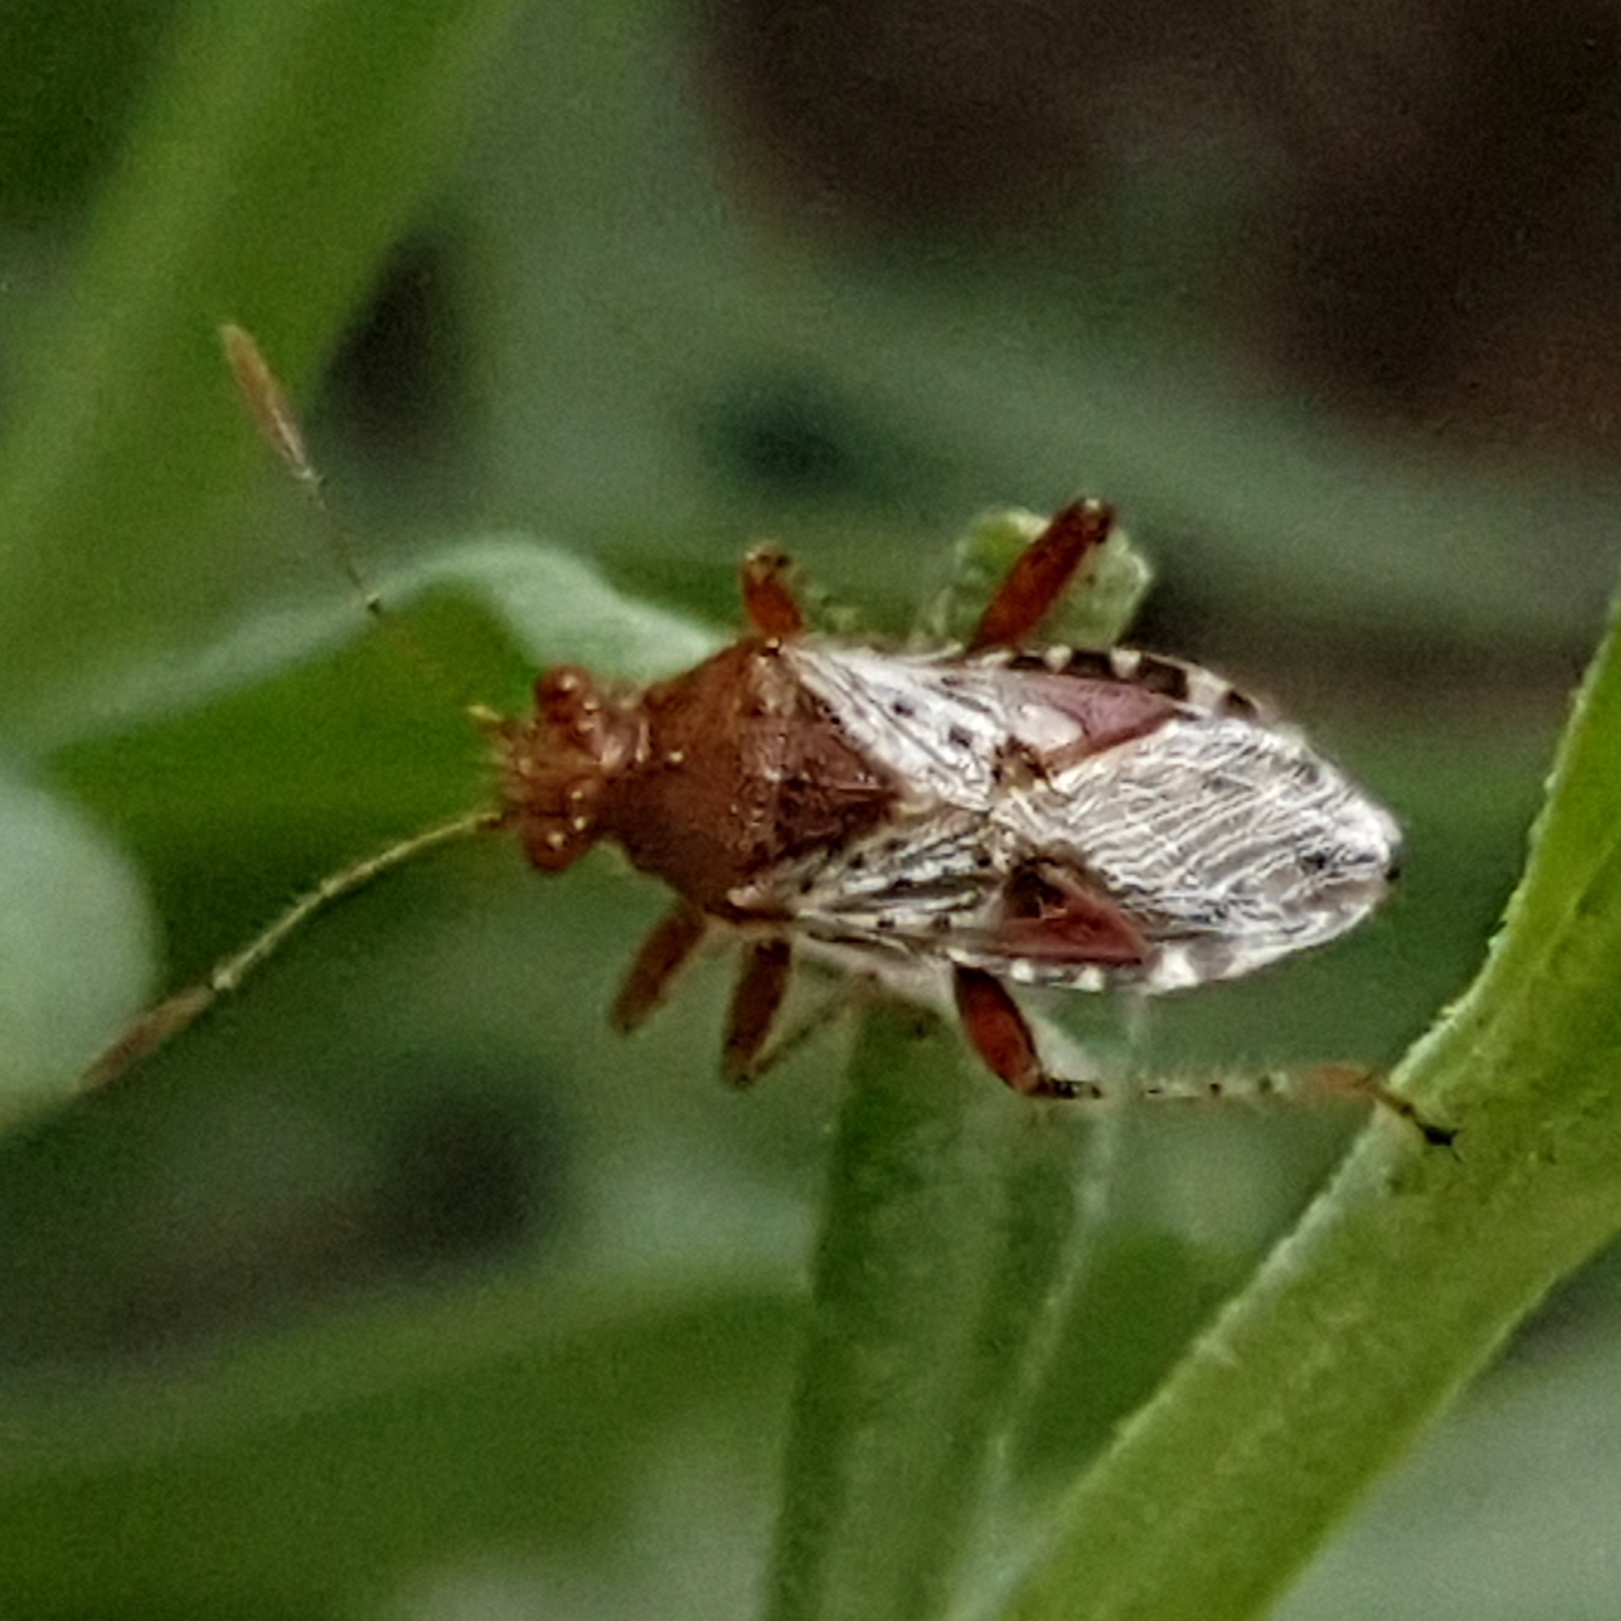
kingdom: Animalia
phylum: Arthropoda
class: Insecta
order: Hemiptera
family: Rhopalidae
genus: Rhopalus
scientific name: Rhopalus subrufus
